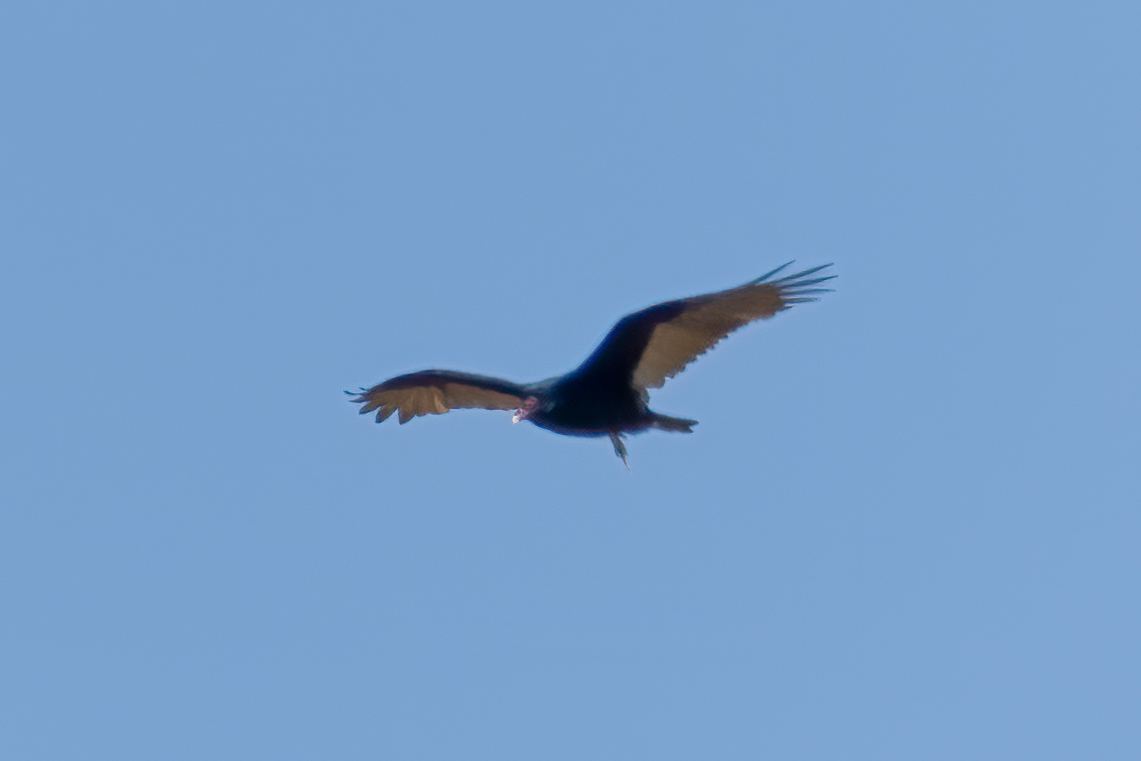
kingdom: Animalia
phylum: Chordata
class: Aves
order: Accipitriformes
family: Cathartidae
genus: Cathartes
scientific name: Cathartes aura
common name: Turkey vulture
